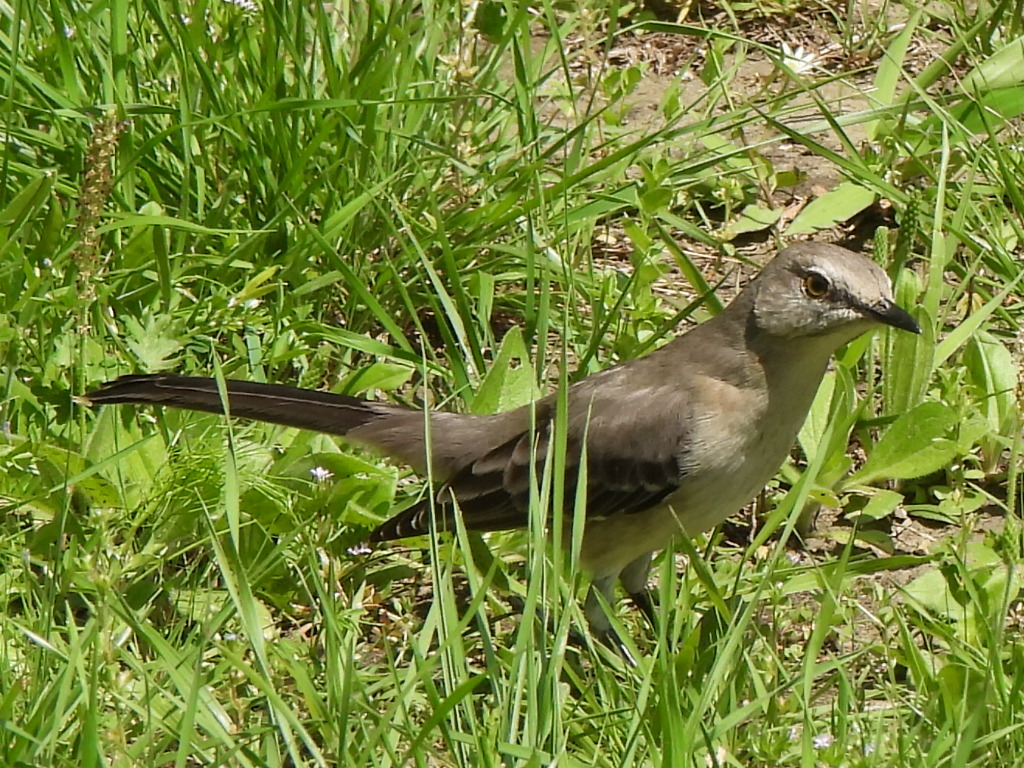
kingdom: Animalia
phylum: Chordata
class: Aves
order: Passeriformes
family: Mimidae
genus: Mimus
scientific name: Mimus polyglottos
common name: Northern mockingbird
